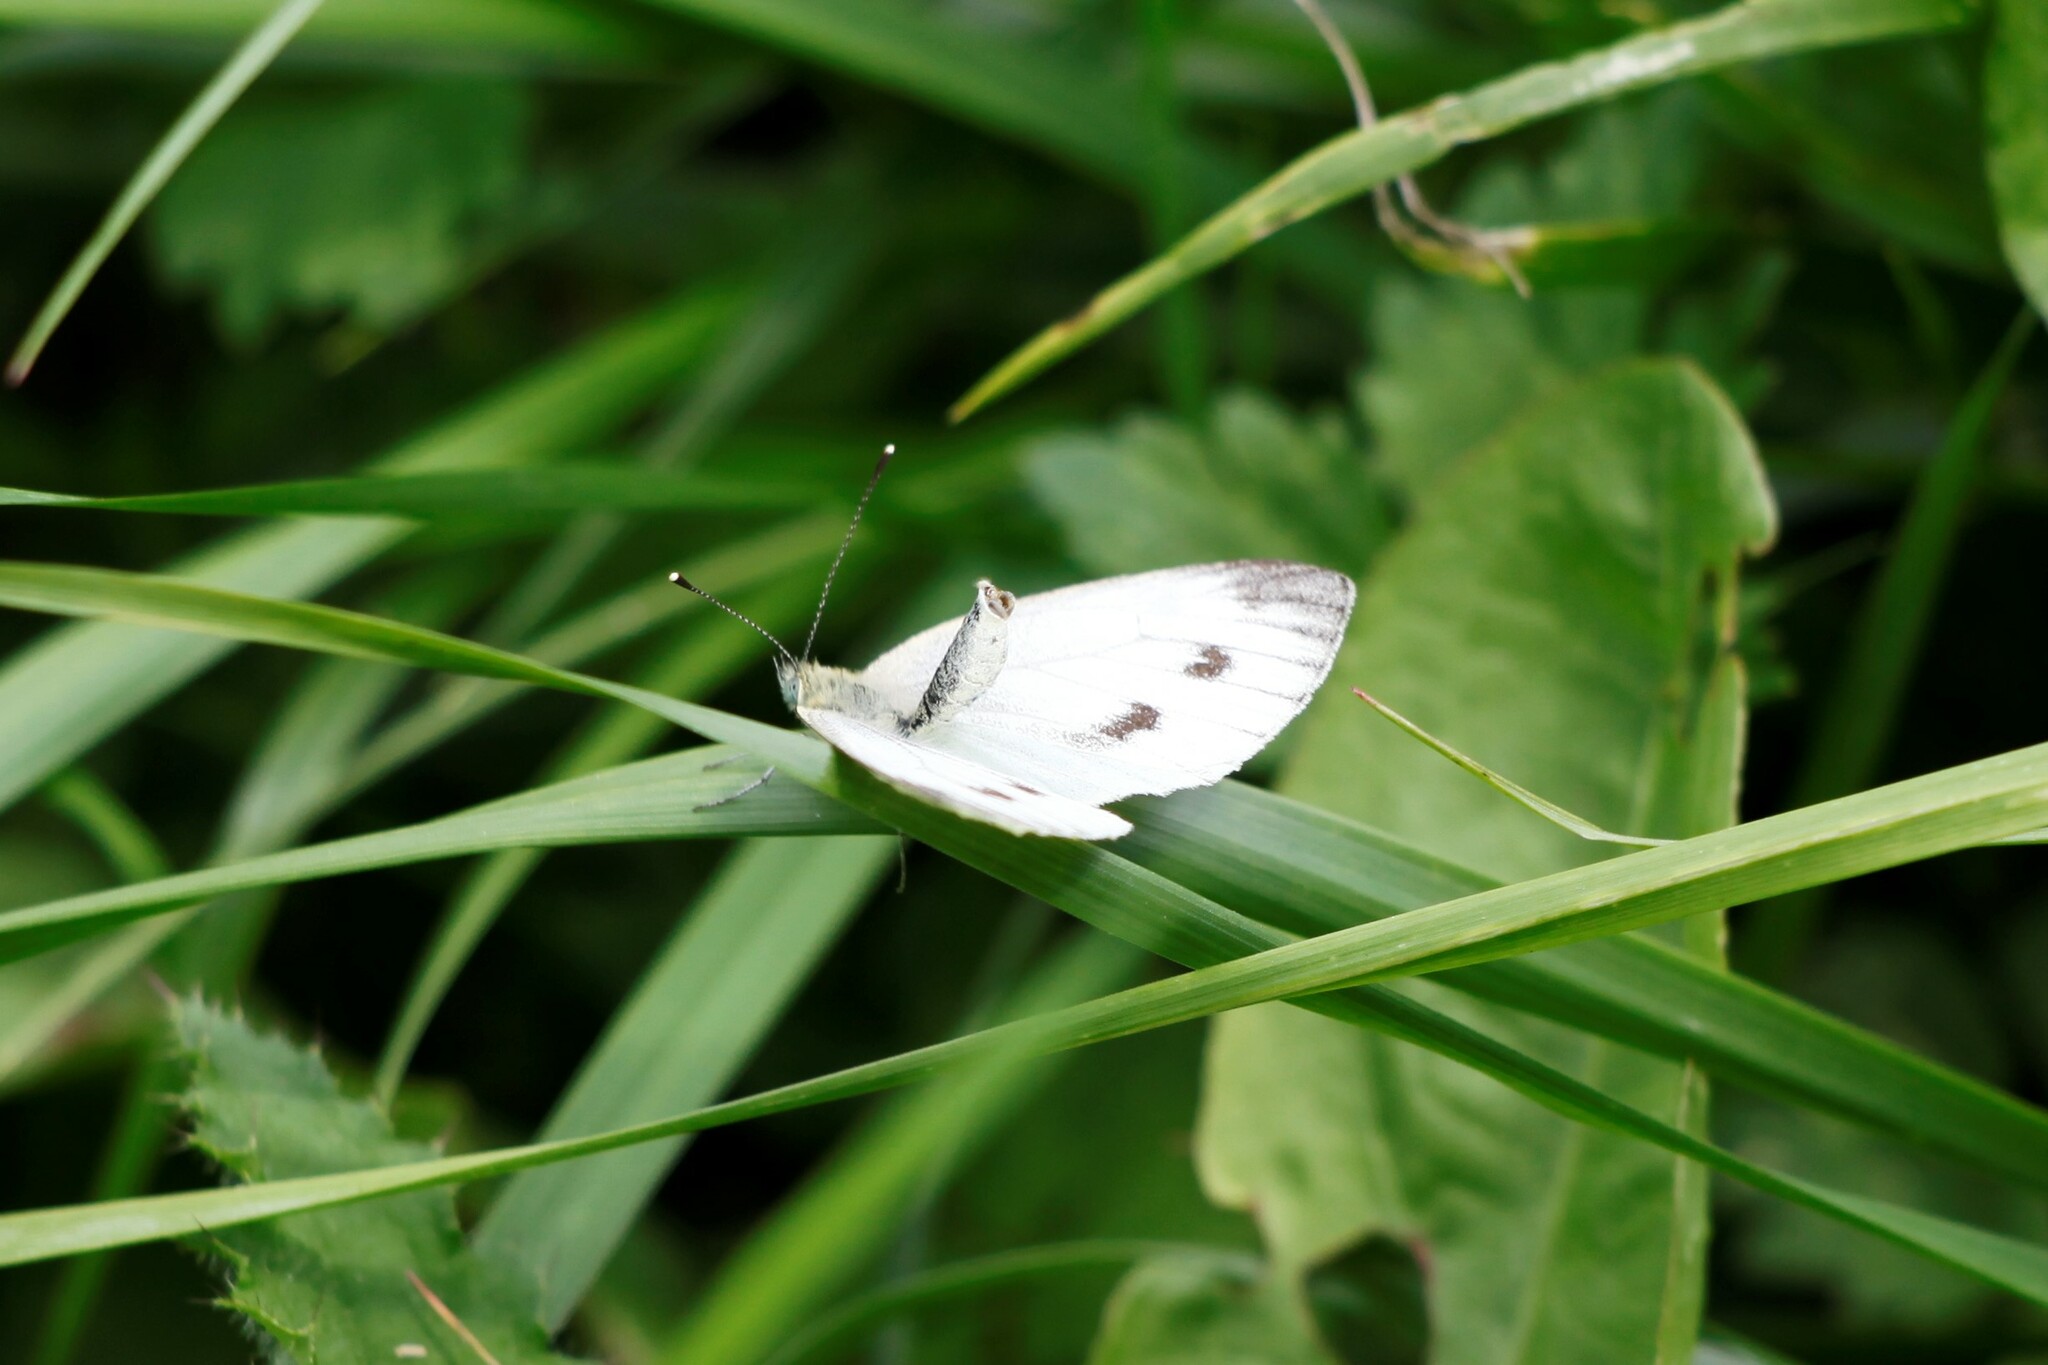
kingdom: Animalia
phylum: Arthropoda
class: Insecta
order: Lepidoptera
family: Pieridae
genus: Pieris
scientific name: Pieris napi
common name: Green-veined white
